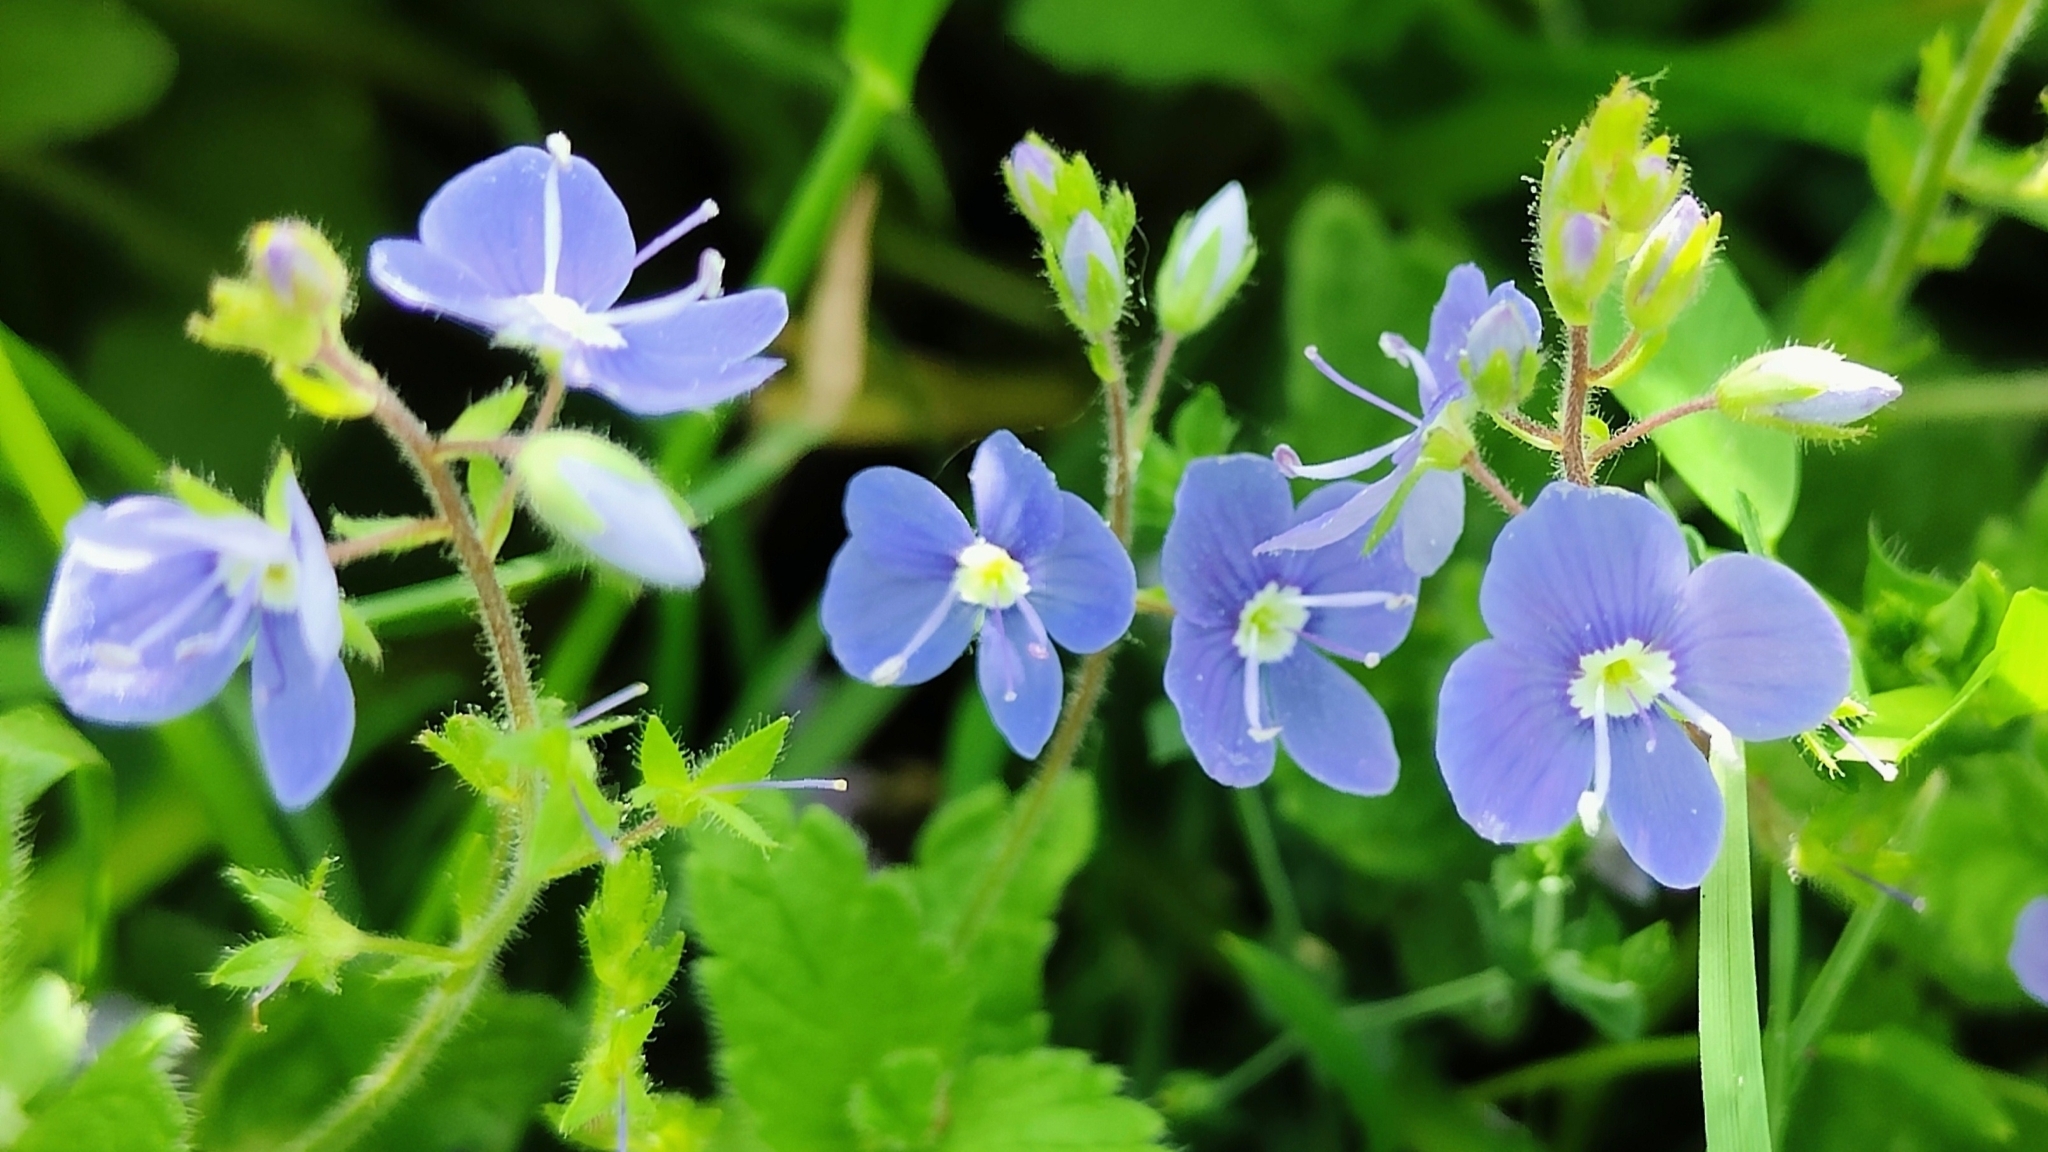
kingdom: Plantae
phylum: Tracheophyta
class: Magnoliopsida
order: Lamiales
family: Plantaginaceae
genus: Veronica
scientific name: Veronica chamaedrys
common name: Germander speedwell
